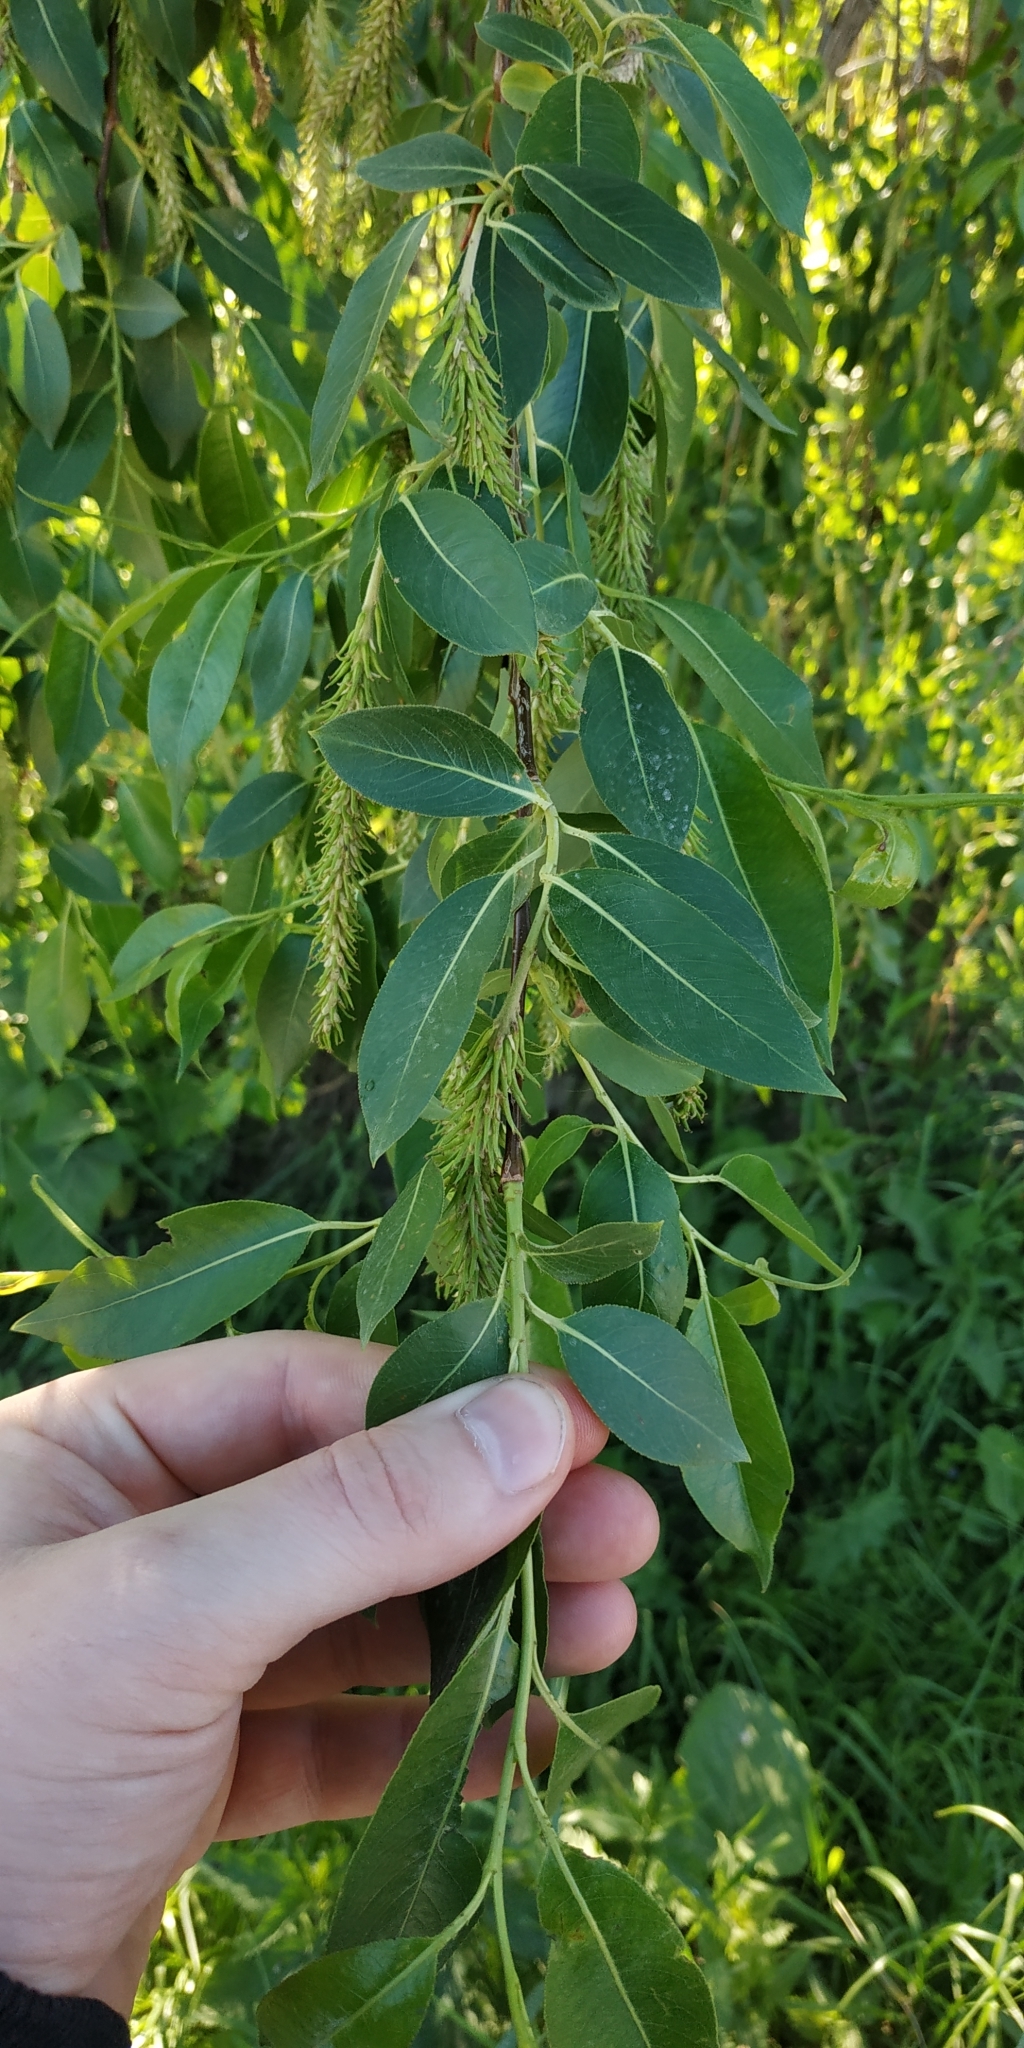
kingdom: Plantae
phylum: Tracheophyta
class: Magnoliopsida
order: Malpighiales
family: Salicaceae
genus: Salix
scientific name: Salix triandra
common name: Almond willow
